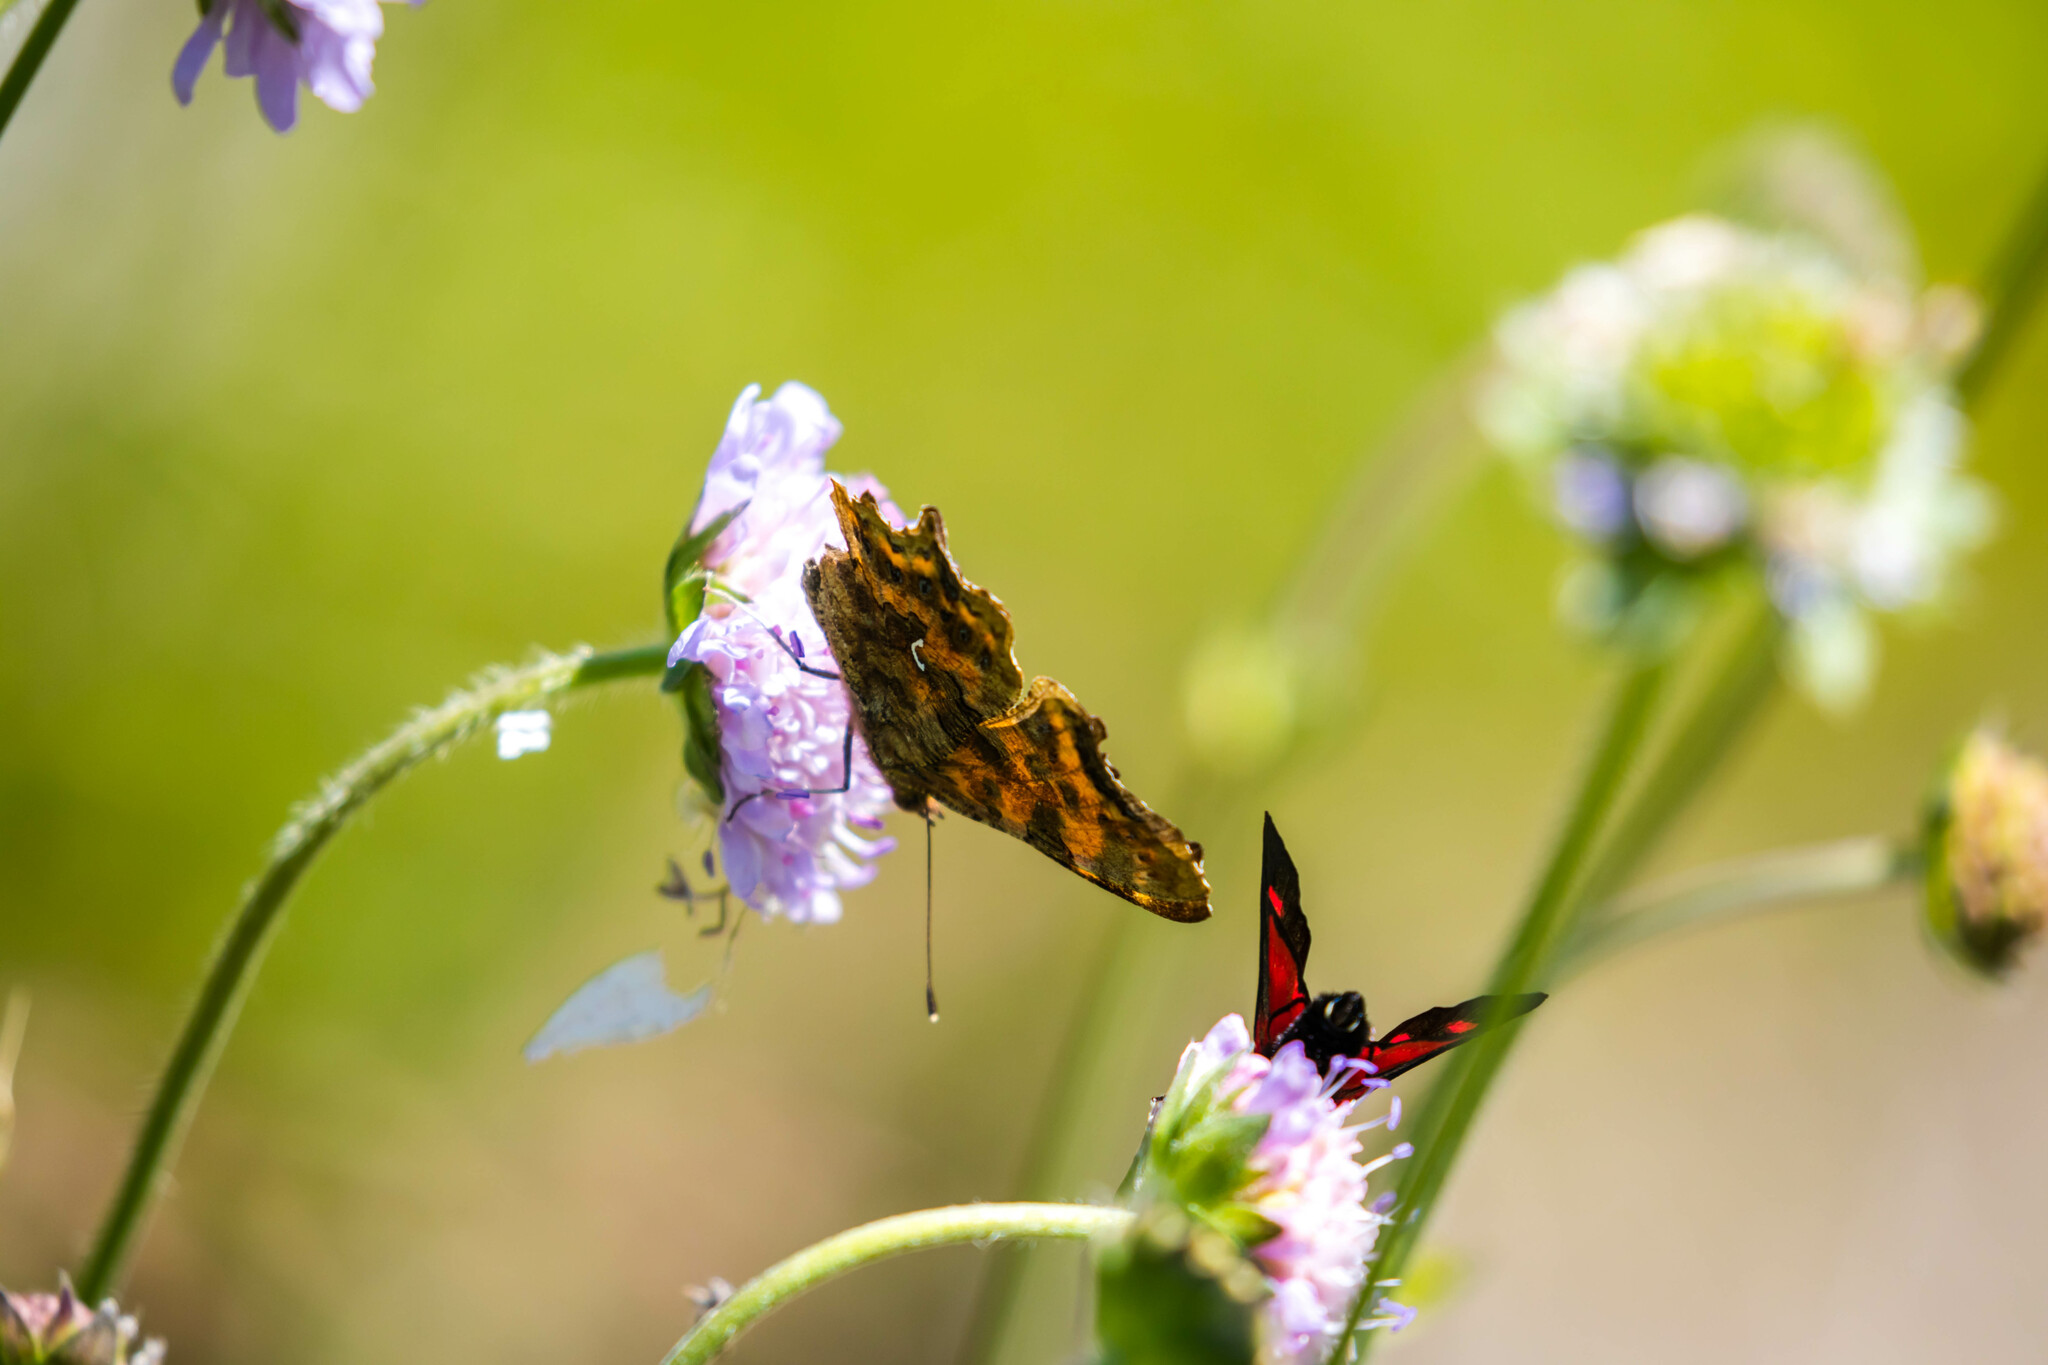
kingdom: Animalia
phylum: Arthropoda
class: Insecta
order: Lepidoptera
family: Nymphalidae
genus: Polygonia
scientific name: Polygonia c-album
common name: Comma
